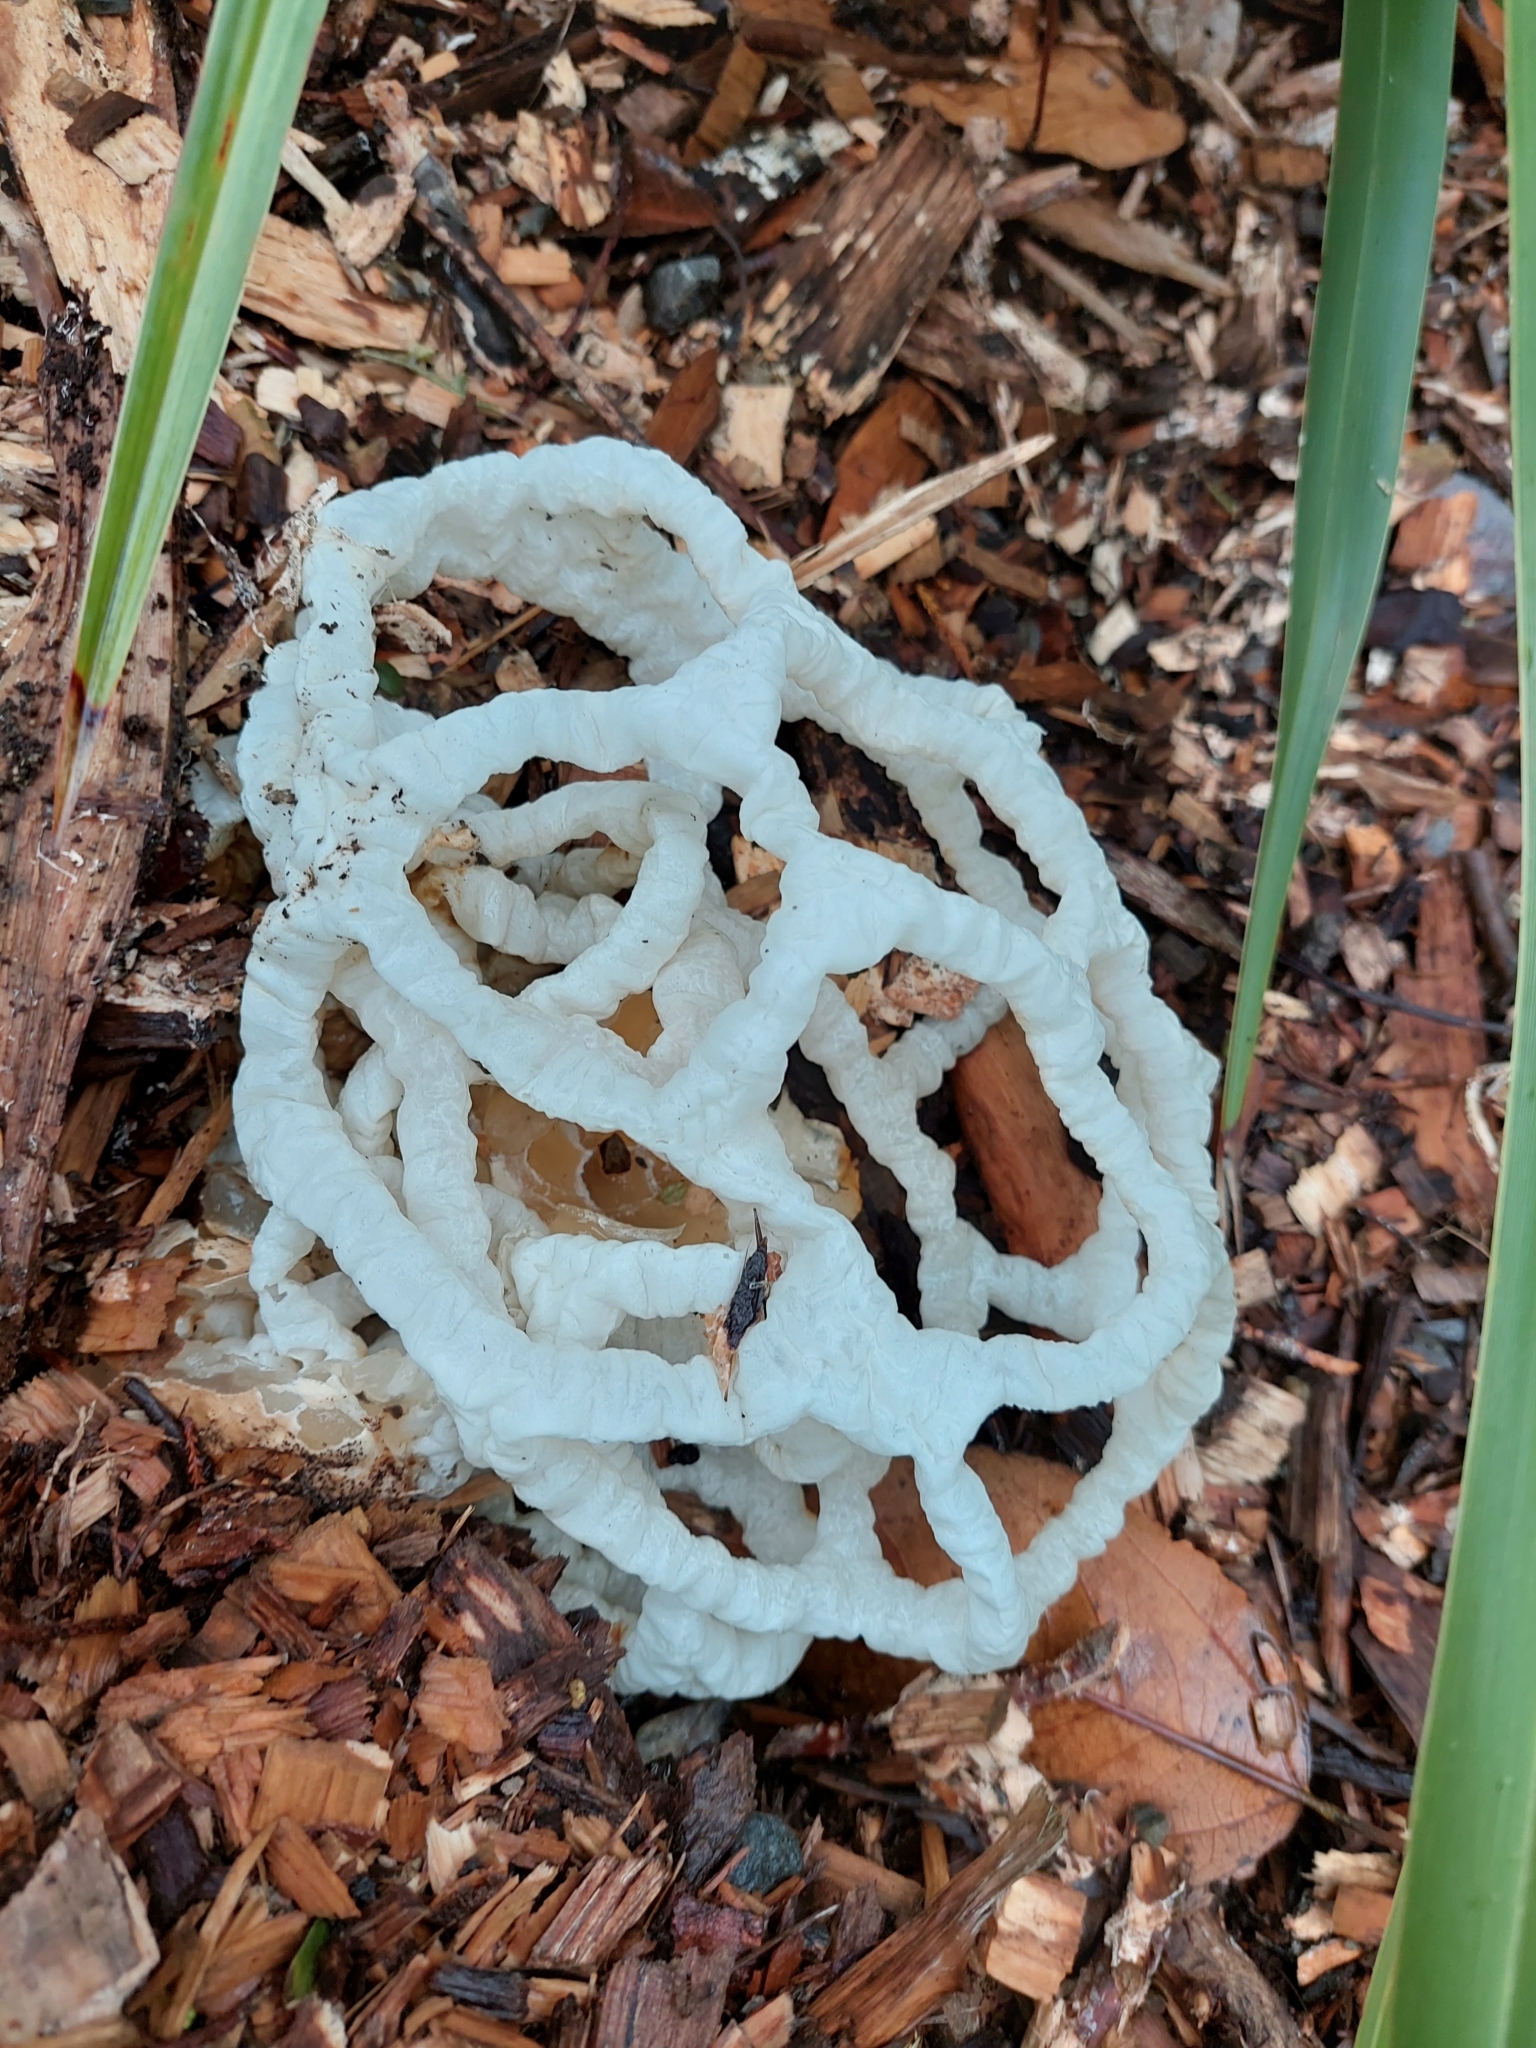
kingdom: Fungi
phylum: Basidiomycota
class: Agaricomycetes
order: Phallales
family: Phallaceae
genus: Ileodictyon
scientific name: Ileodictyon cibarium
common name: Basket fungus
